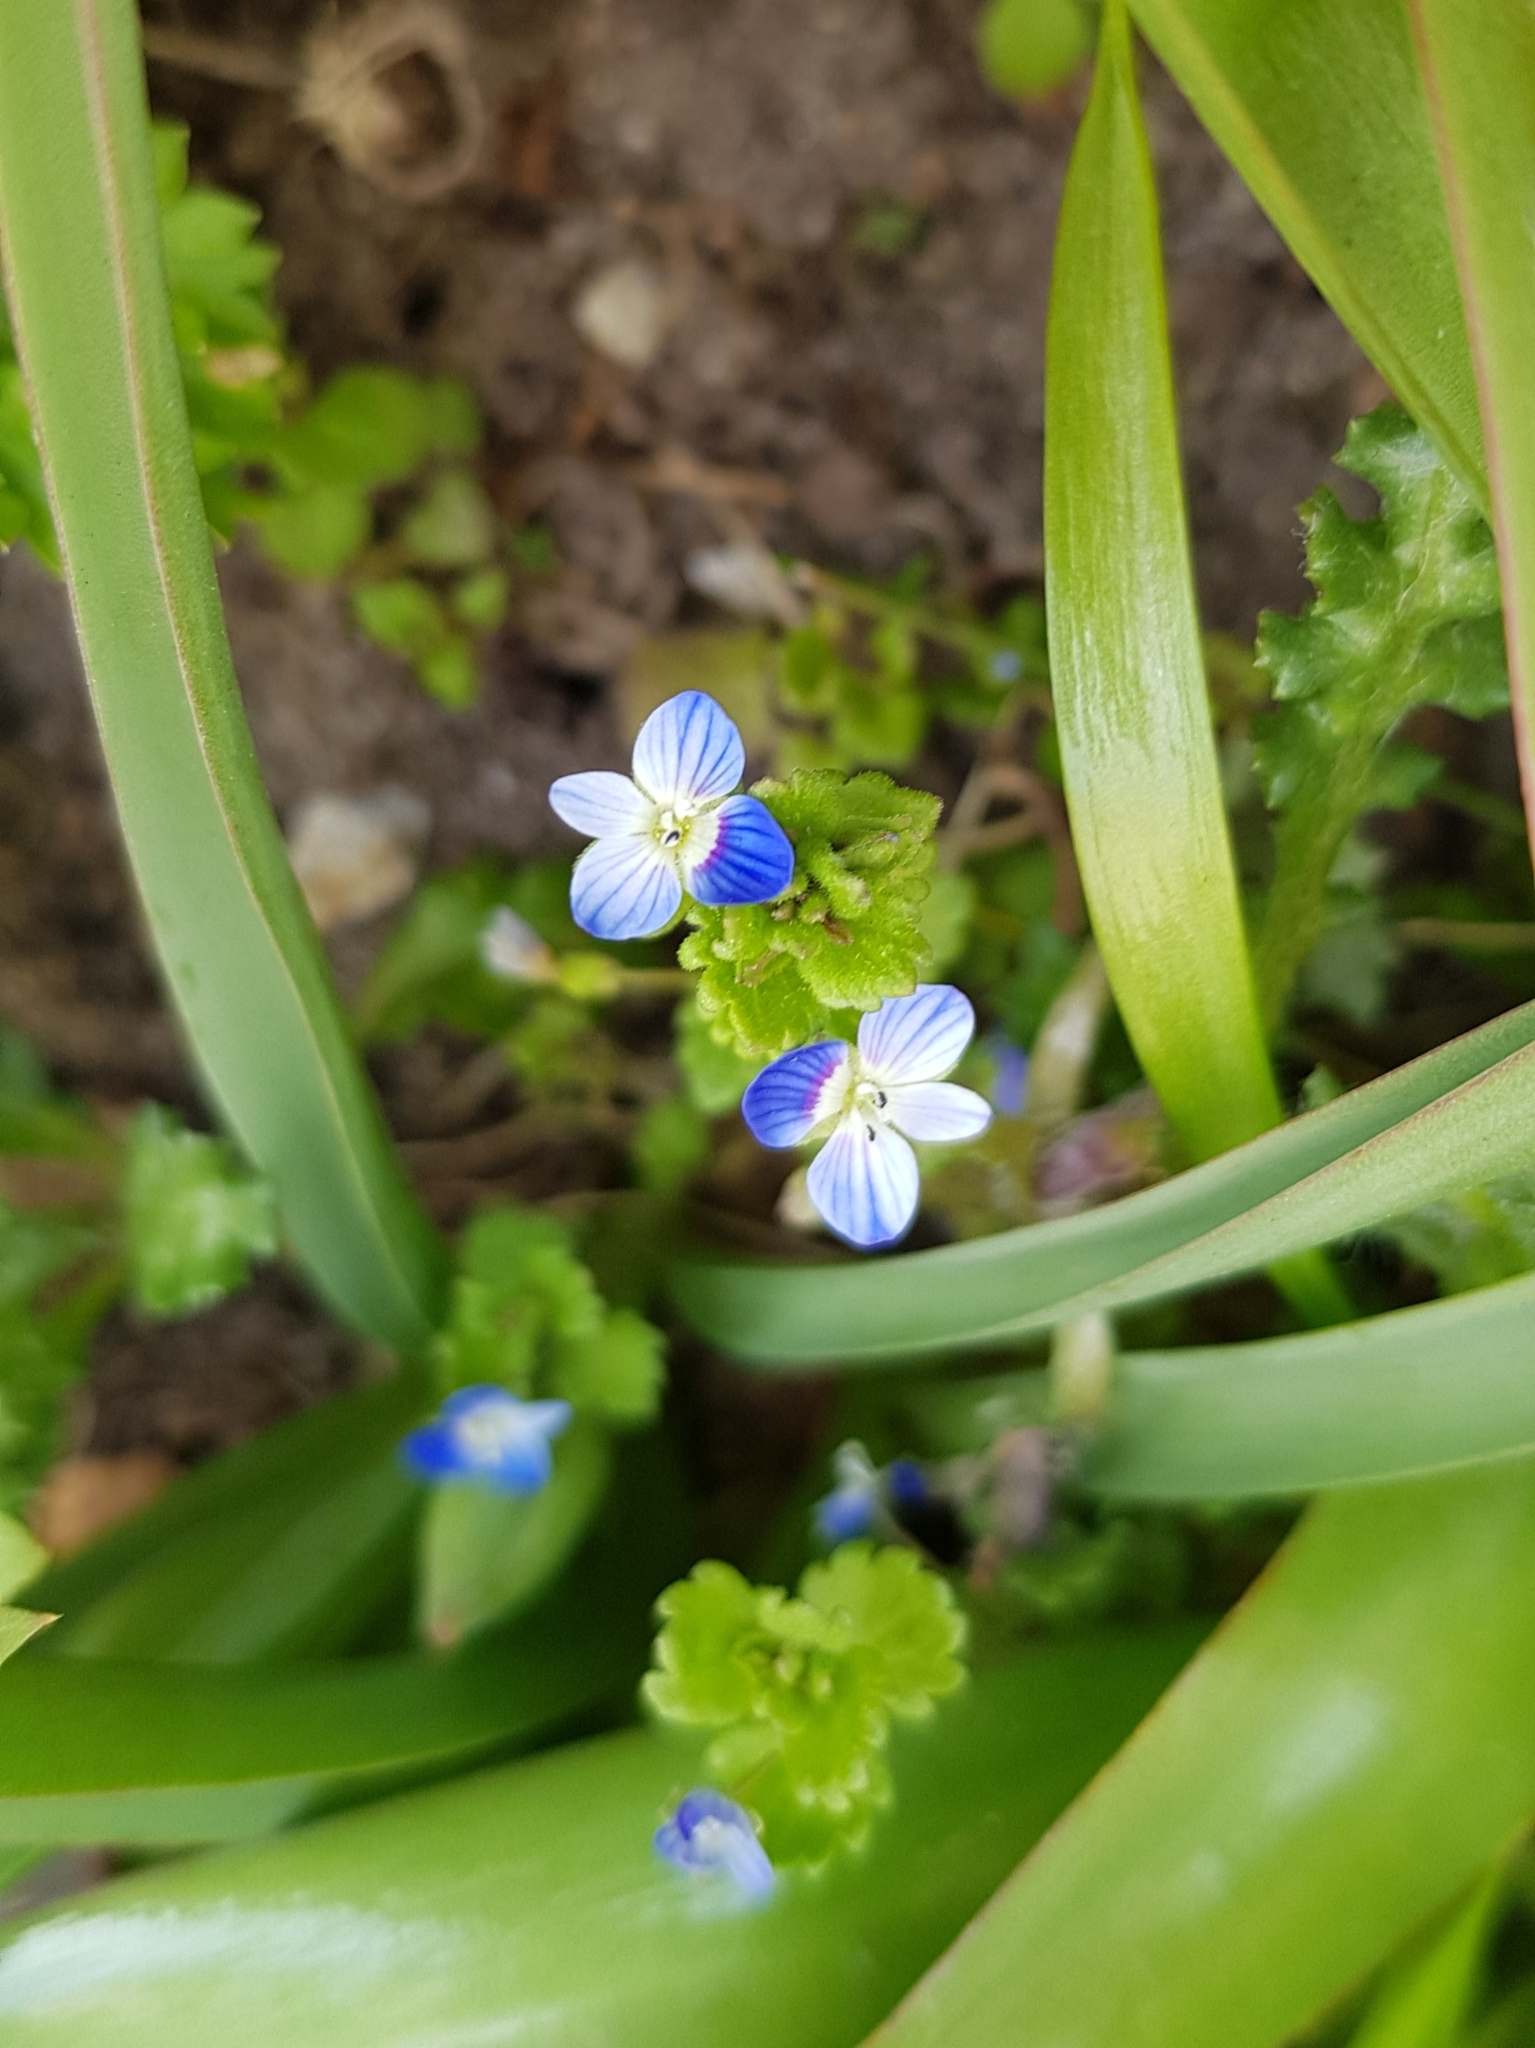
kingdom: Plantae
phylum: Tracheophyta
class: Magnoliopsida
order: Lamiales
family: Plantaginaceae
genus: Veronica
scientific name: Veronica persica
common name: Common field-speedwell
